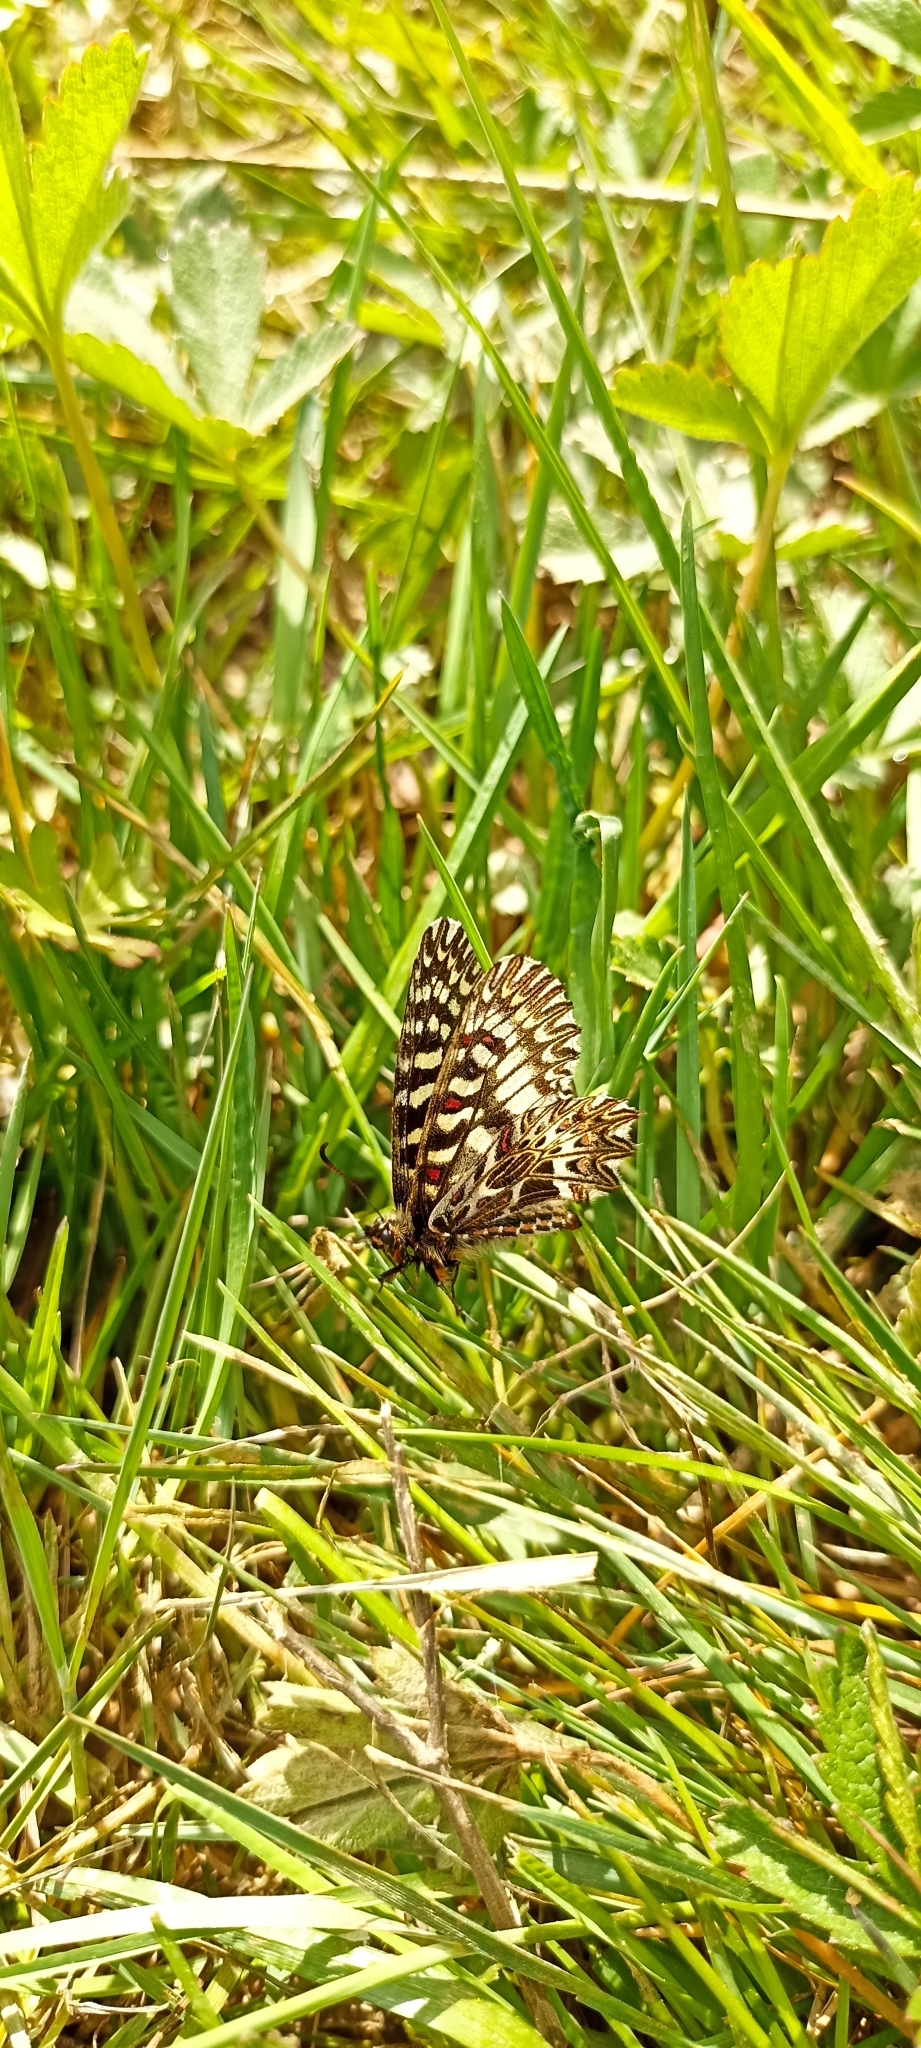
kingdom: Animalia
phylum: Arthropoda
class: Insecta
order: Lepidoptera
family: Papilionidae
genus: Zerynthia
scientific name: Zerynthia polyxena
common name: Southern festoon
